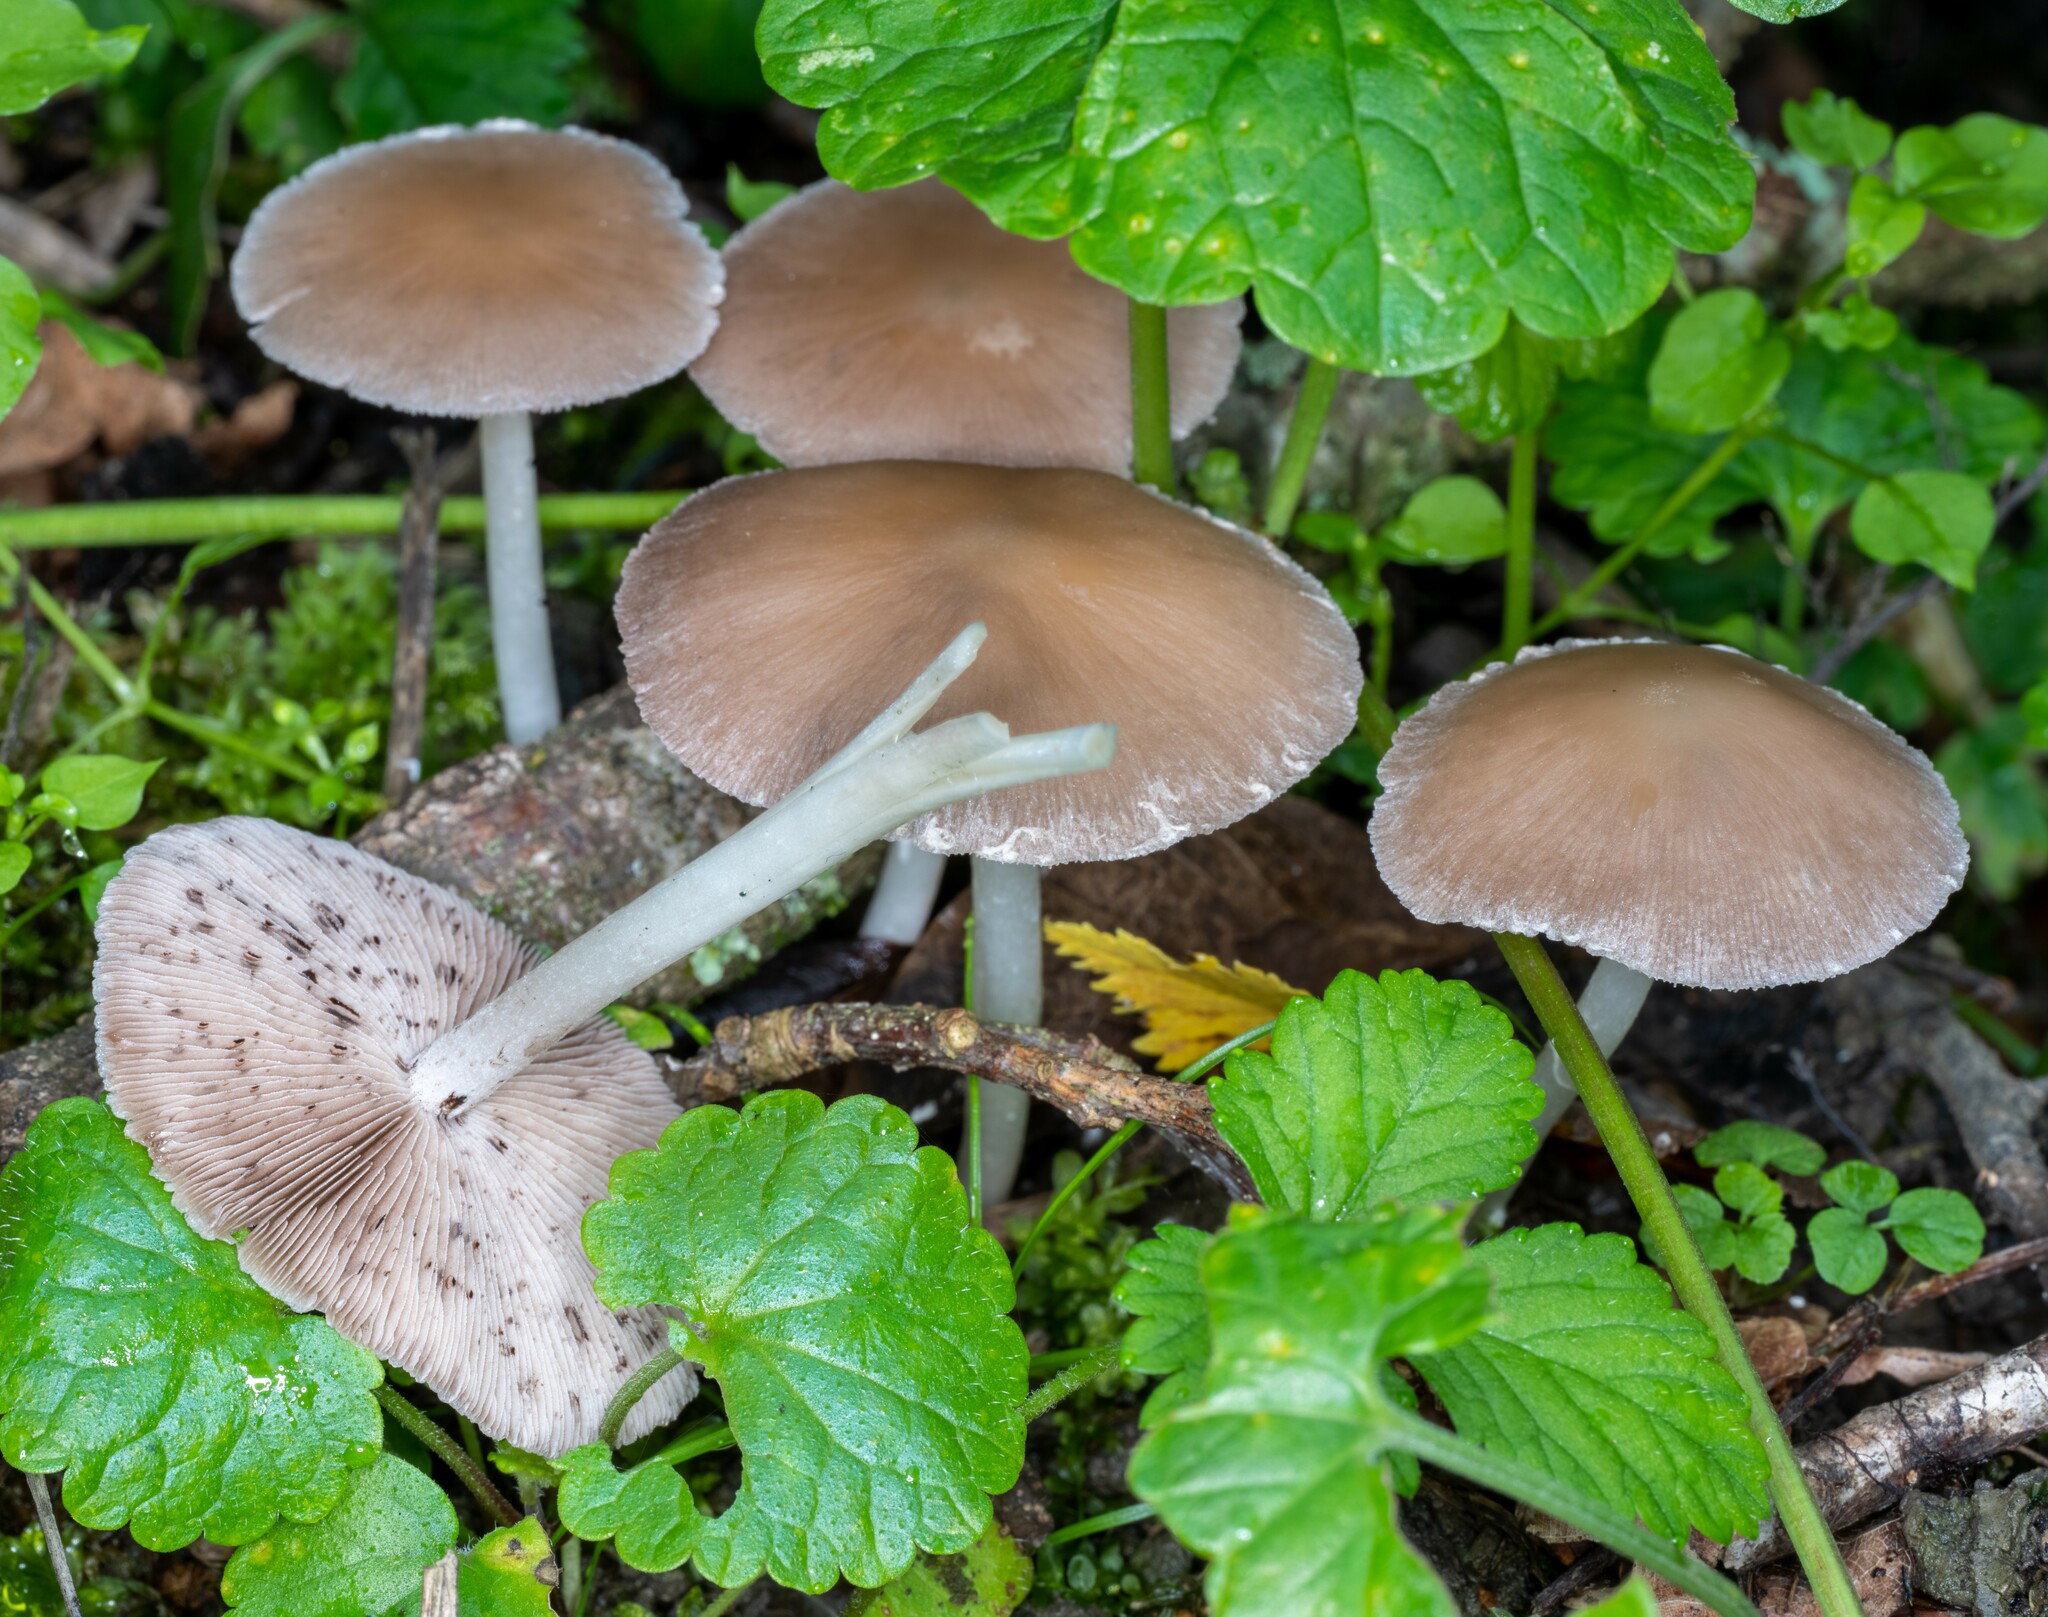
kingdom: Fungi
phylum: Basidiomycota
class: Agaricomycetes
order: Agaricales
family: Psathyrellaceae
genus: Psathyrella
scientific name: Psathyrella tephrophylla
